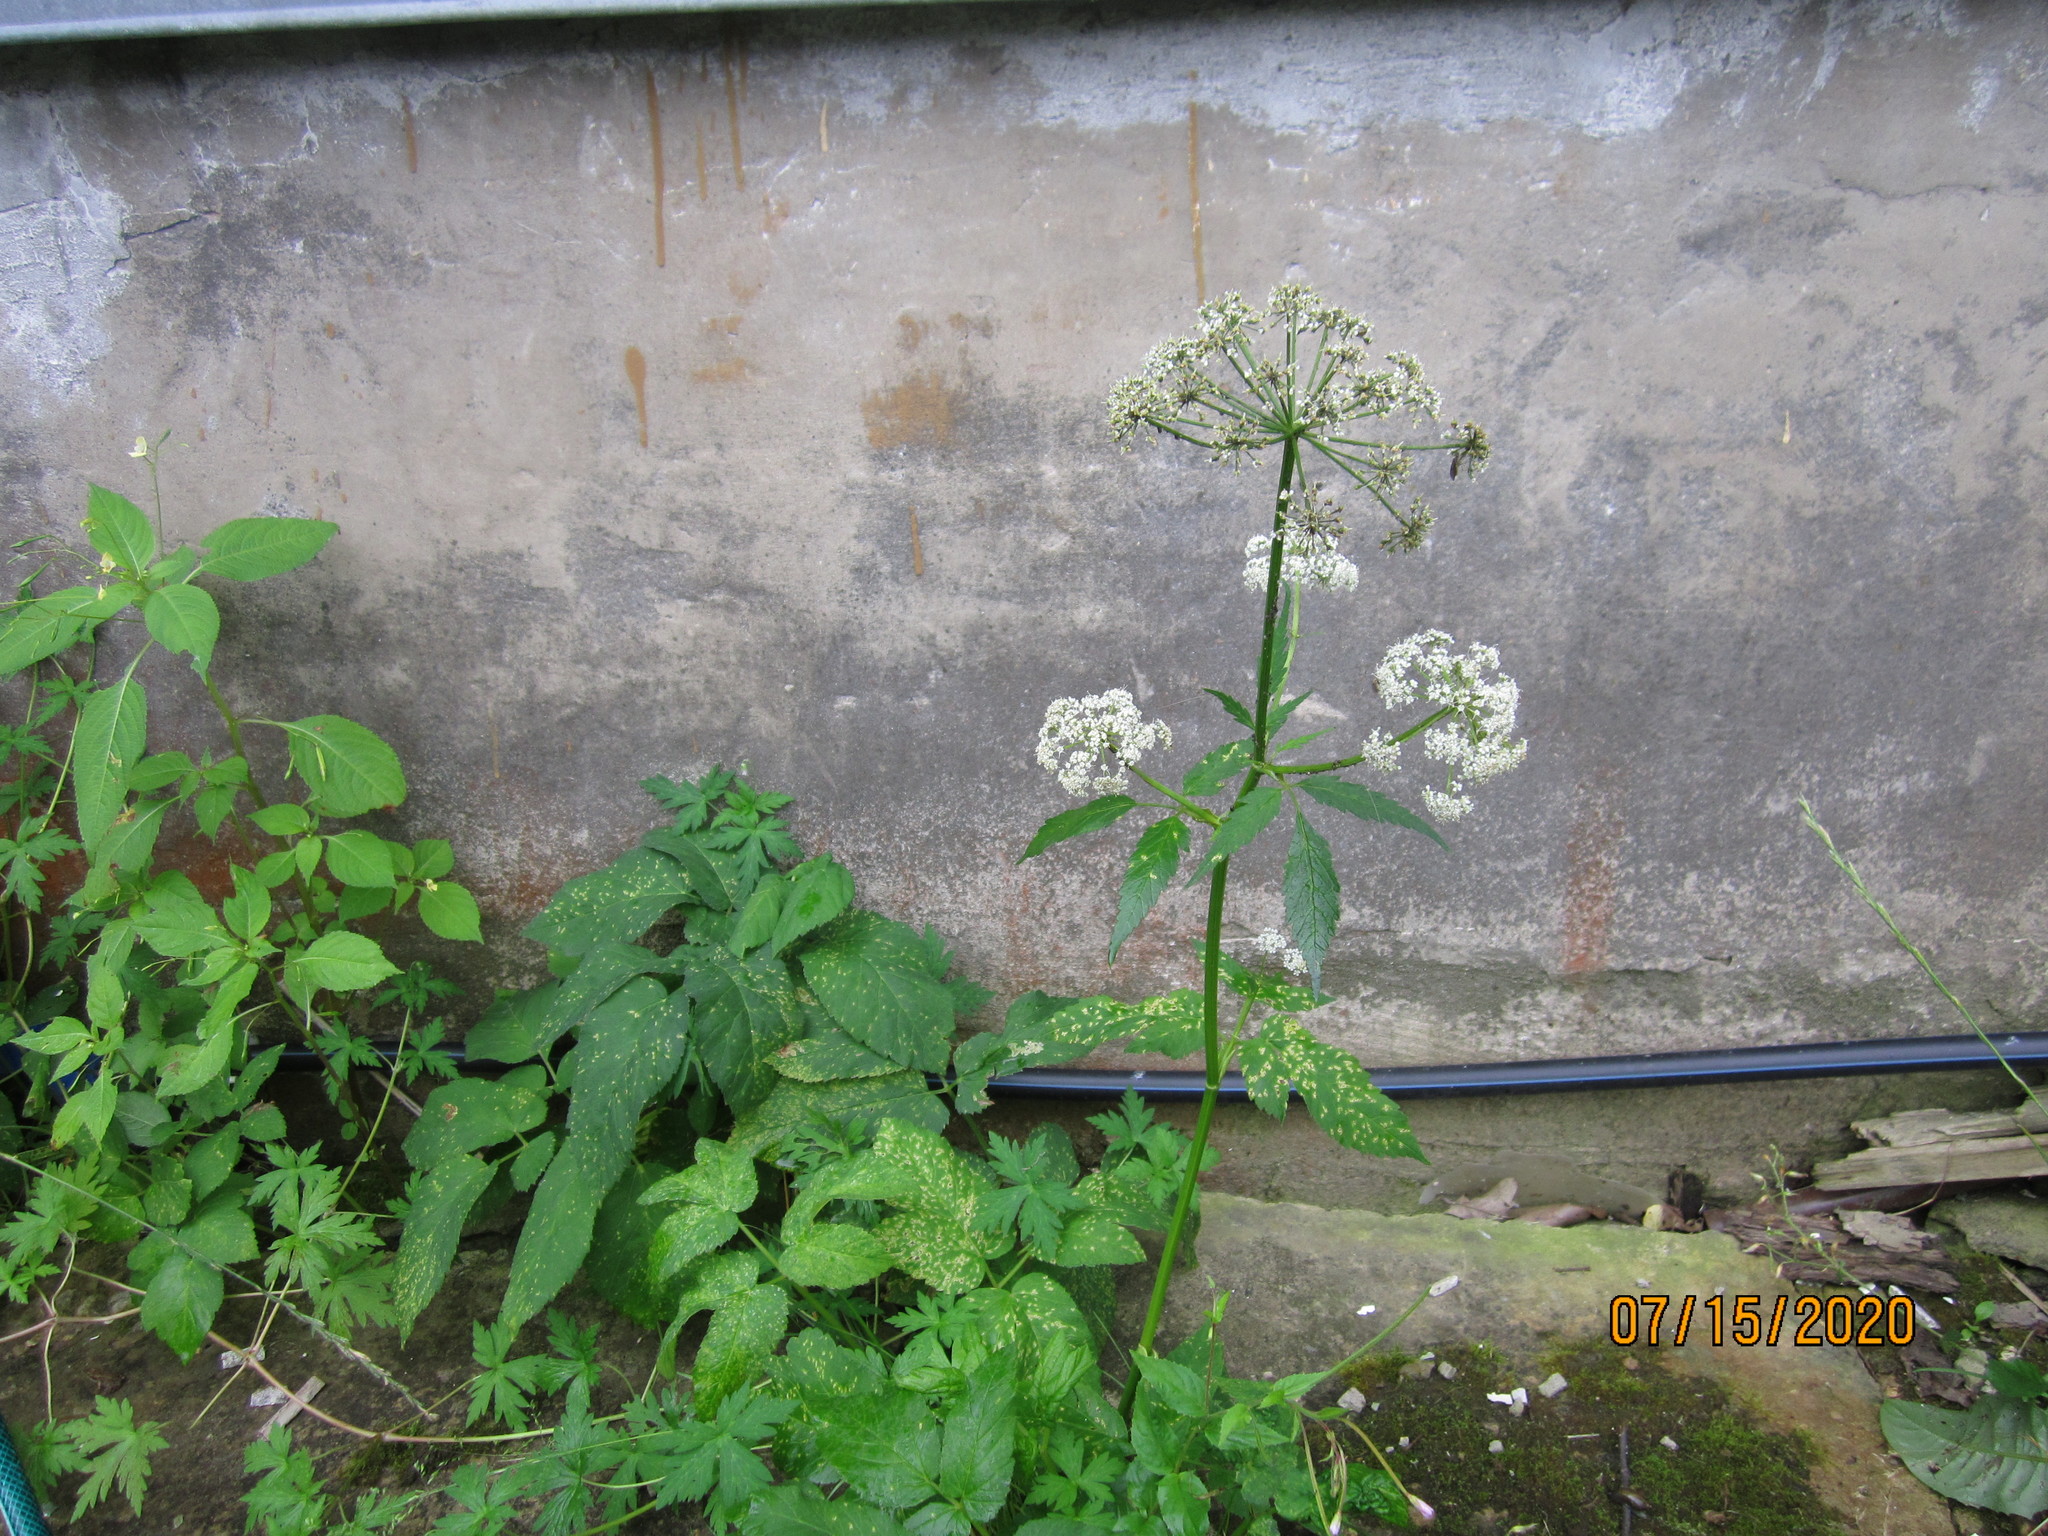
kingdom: Plantae
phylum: Tracheophyta
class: Magnoliopsida
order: Apiales
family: Apiaceae
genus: Aegopodium
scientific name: Aegopodium podagraria
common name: Ground-elder
